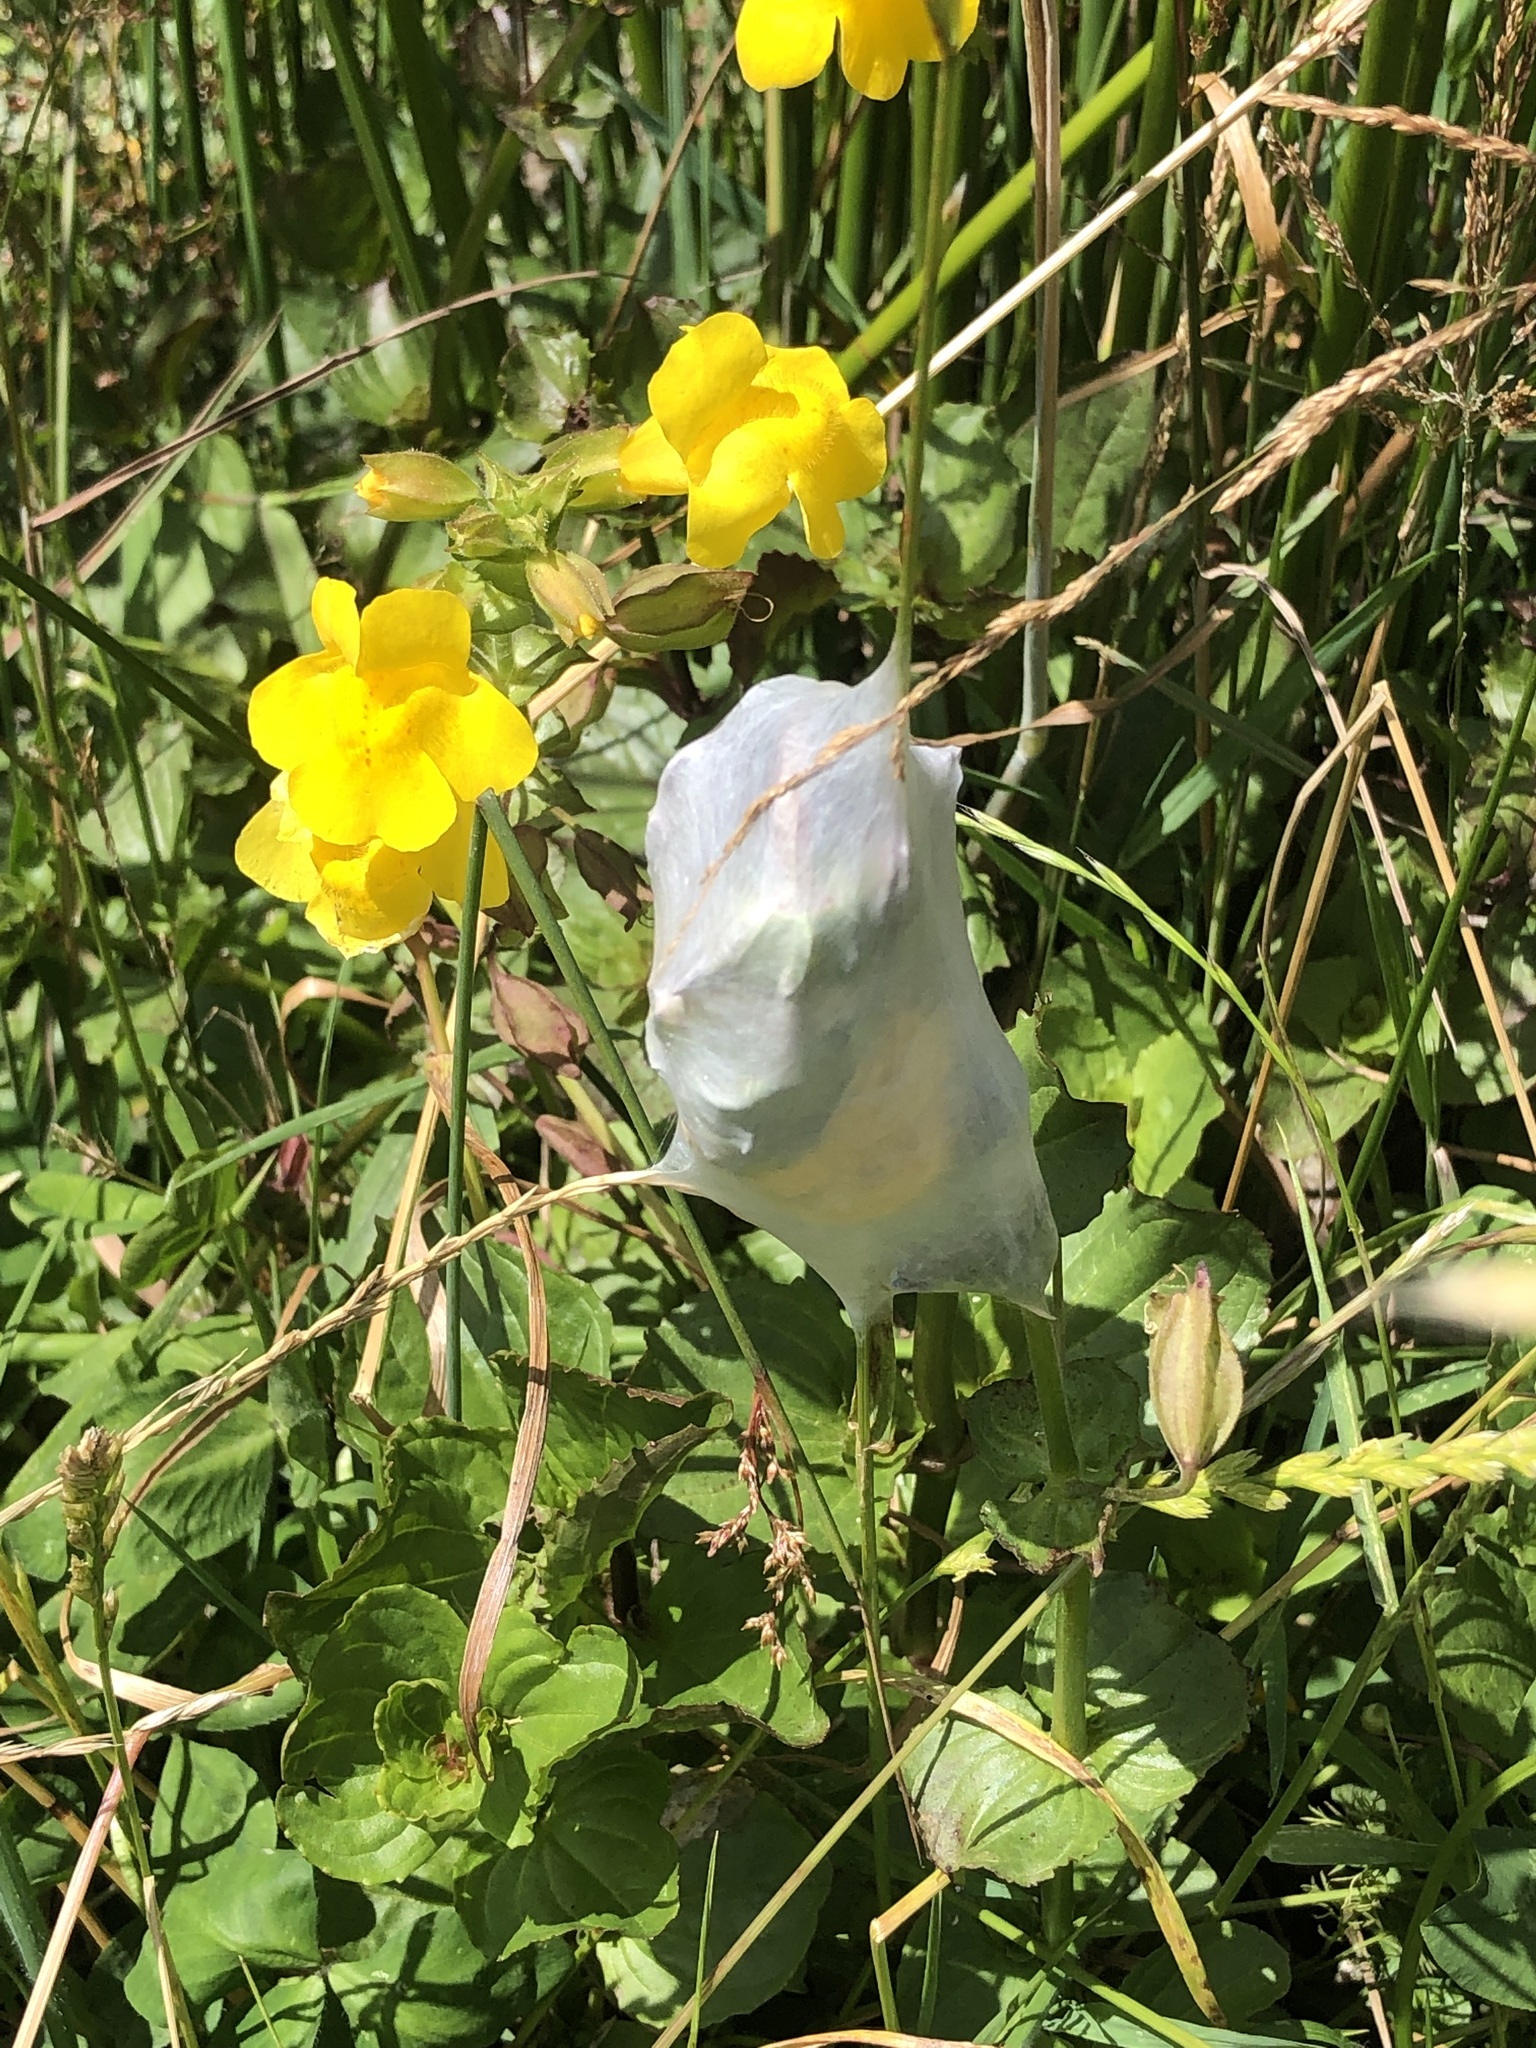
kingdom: Animalia
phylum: Arthropoda
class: Arachnida
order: Araneae
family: Pisauridae
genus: Dolomedes
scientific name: Dolomedes minor
